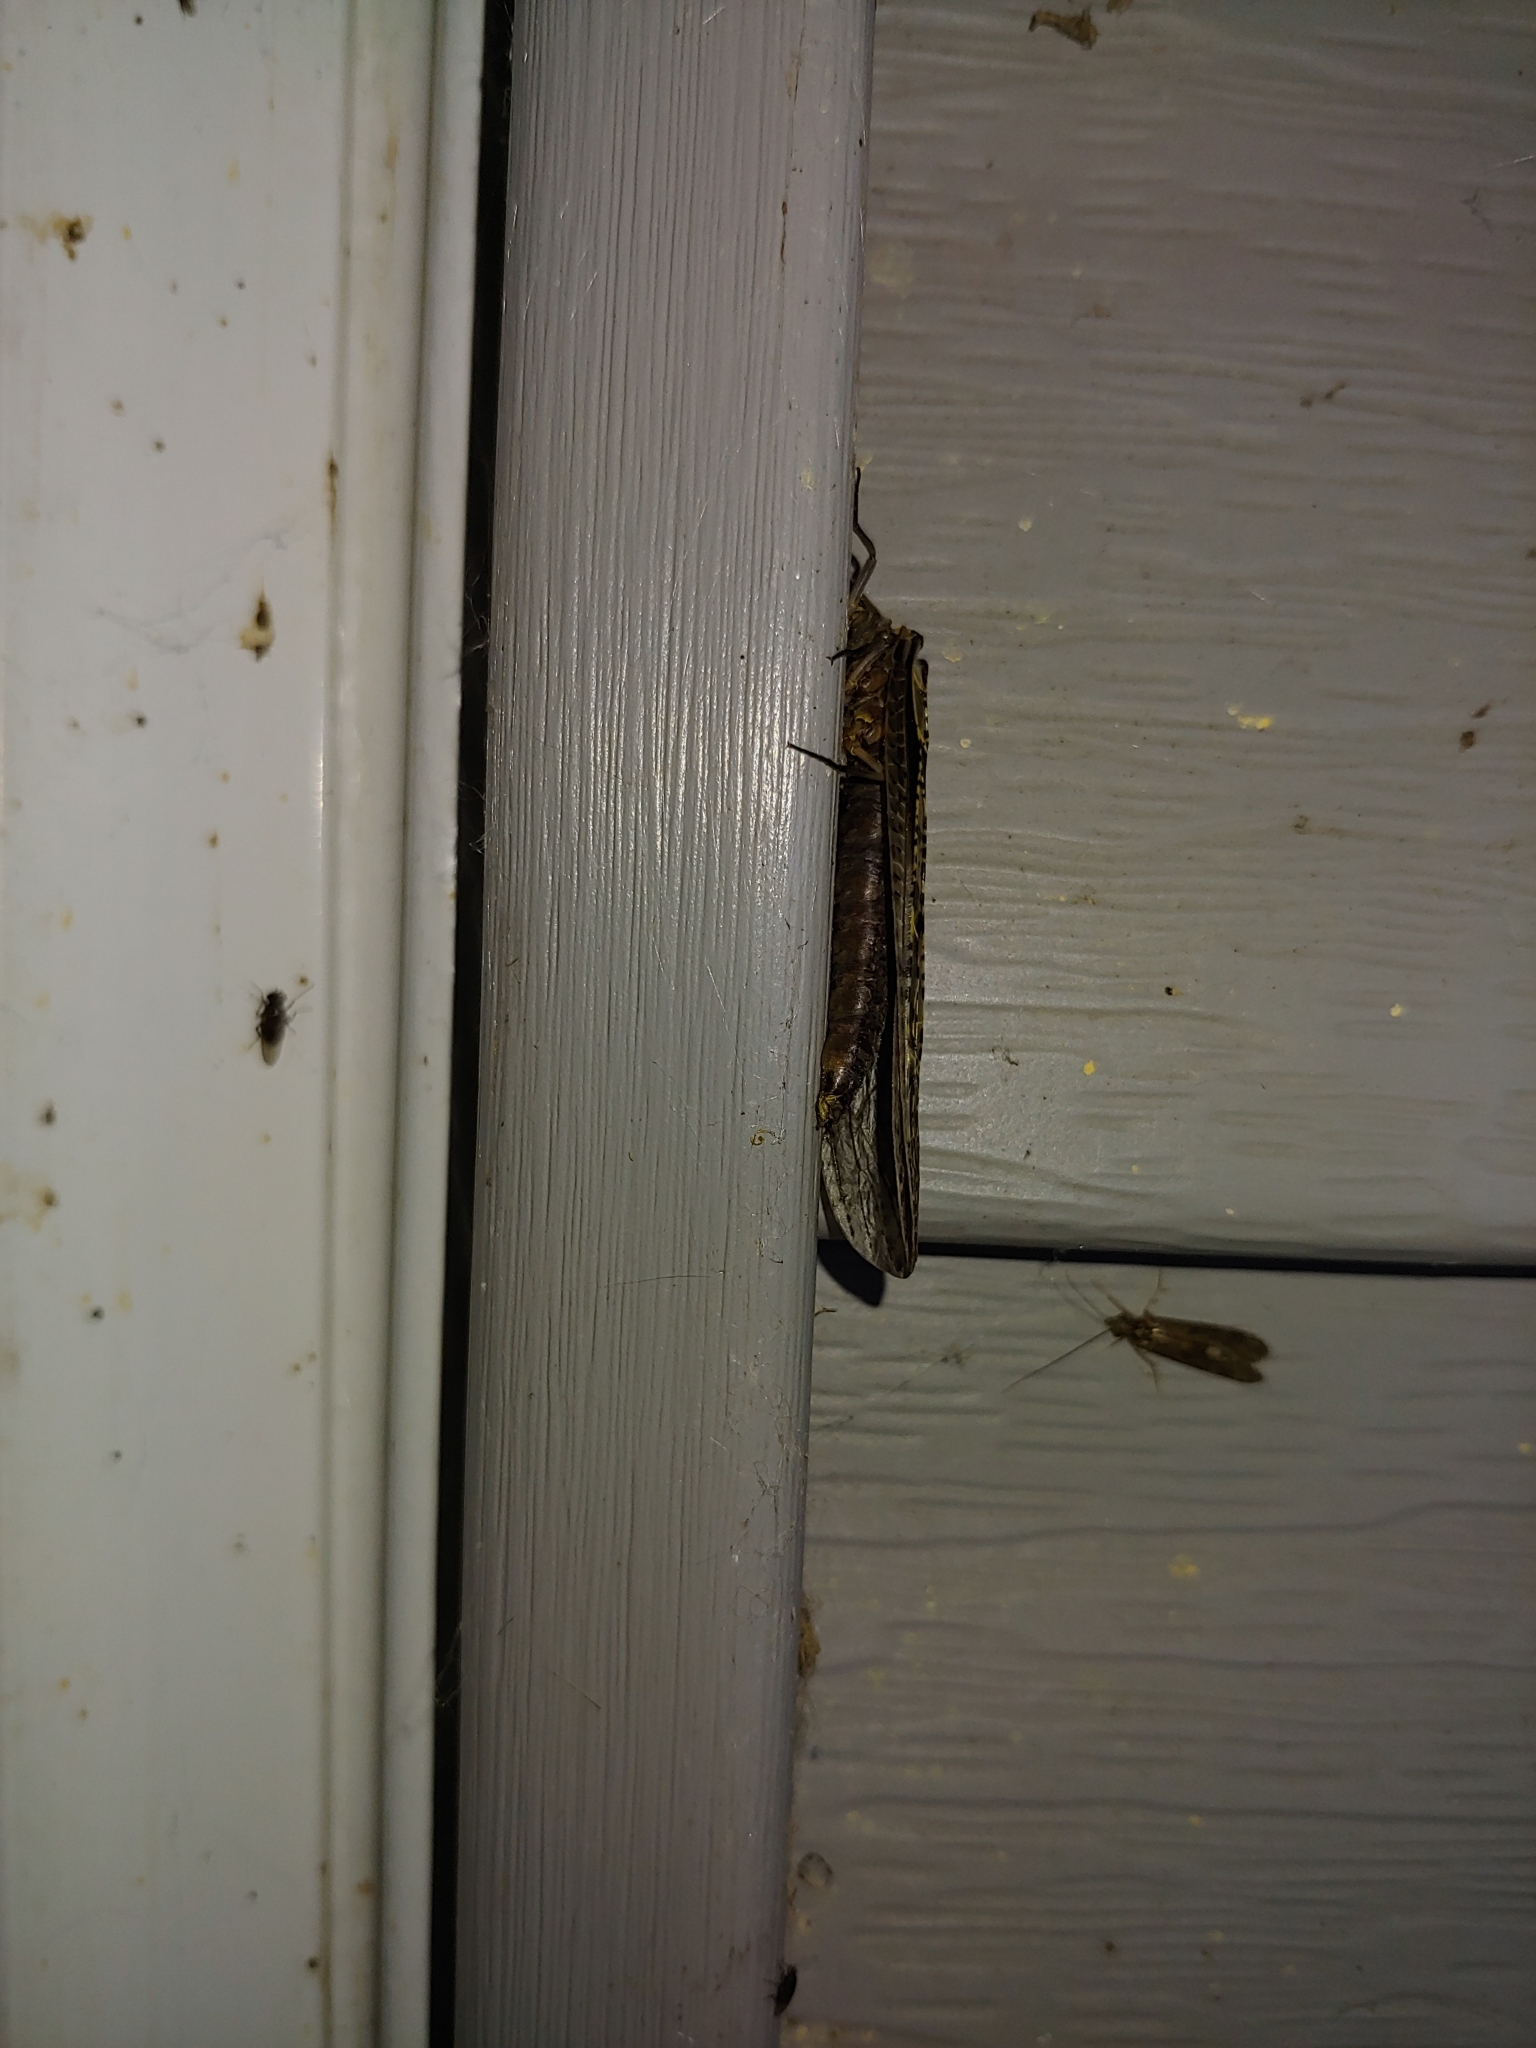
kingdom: Animalia
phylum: Arthropoda
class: Insecta
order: Megaloptera
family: Corydalidae
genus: Chauliodes
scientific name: Chauliodes rastricornis
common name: Spring fishfly
